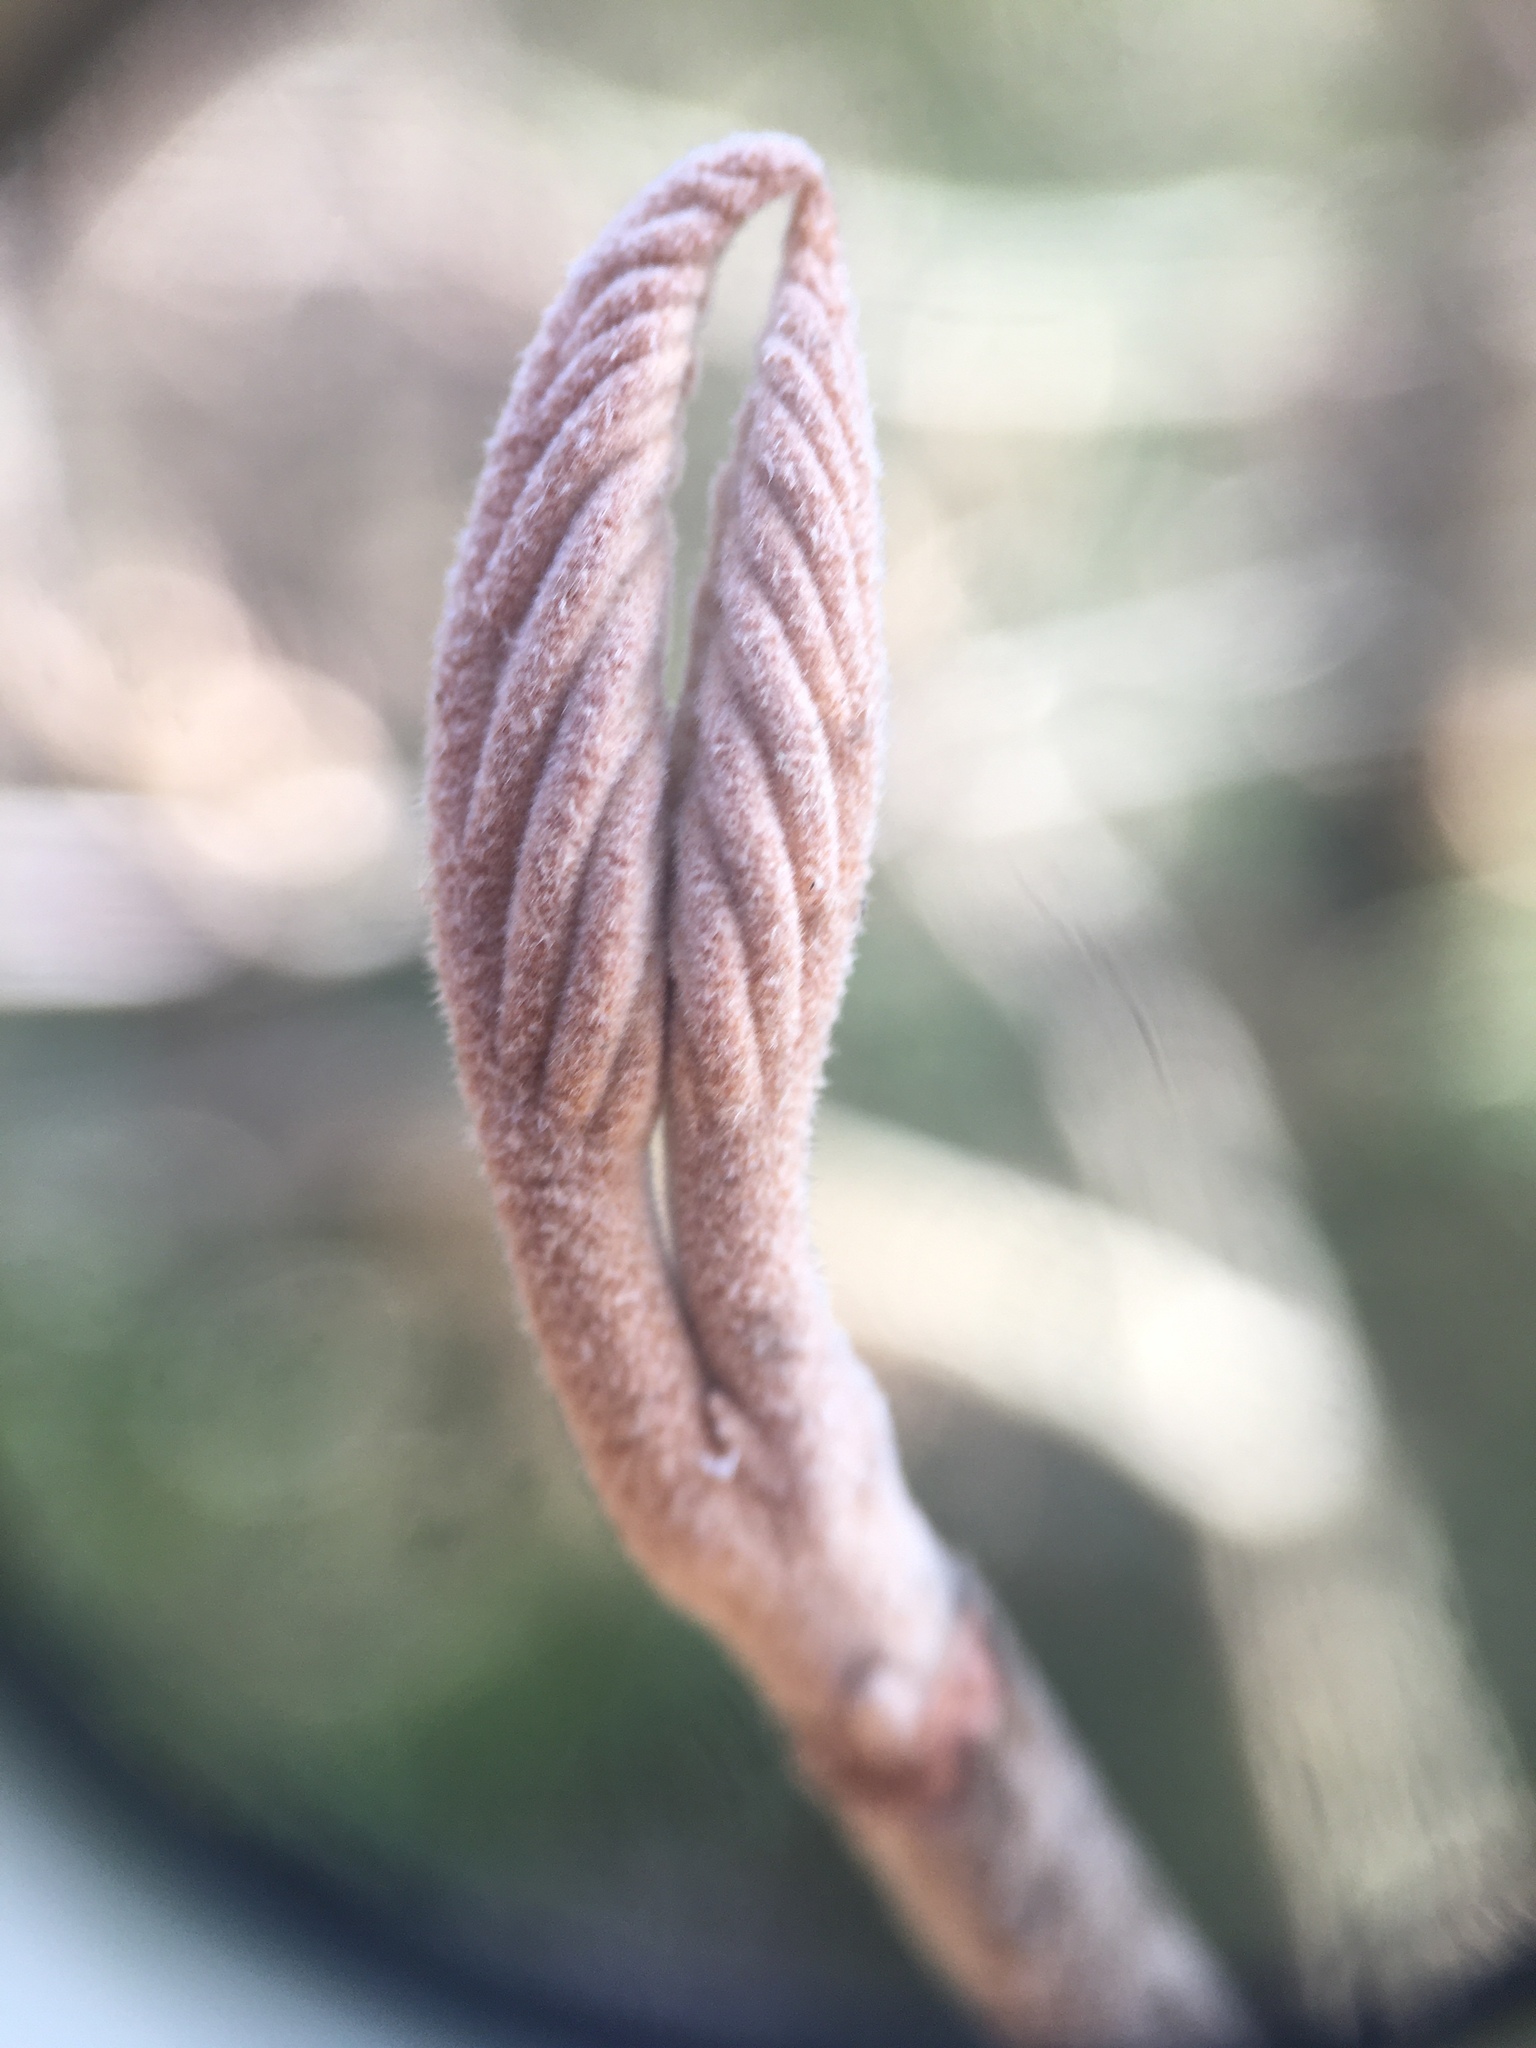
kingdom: Plantae
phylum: Tracheophyta
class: Magnoliopsida
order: Dipsacales
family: Viburnaceae
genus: Viburnum
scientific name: Viburnum lantanoides
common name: Hobblebush
